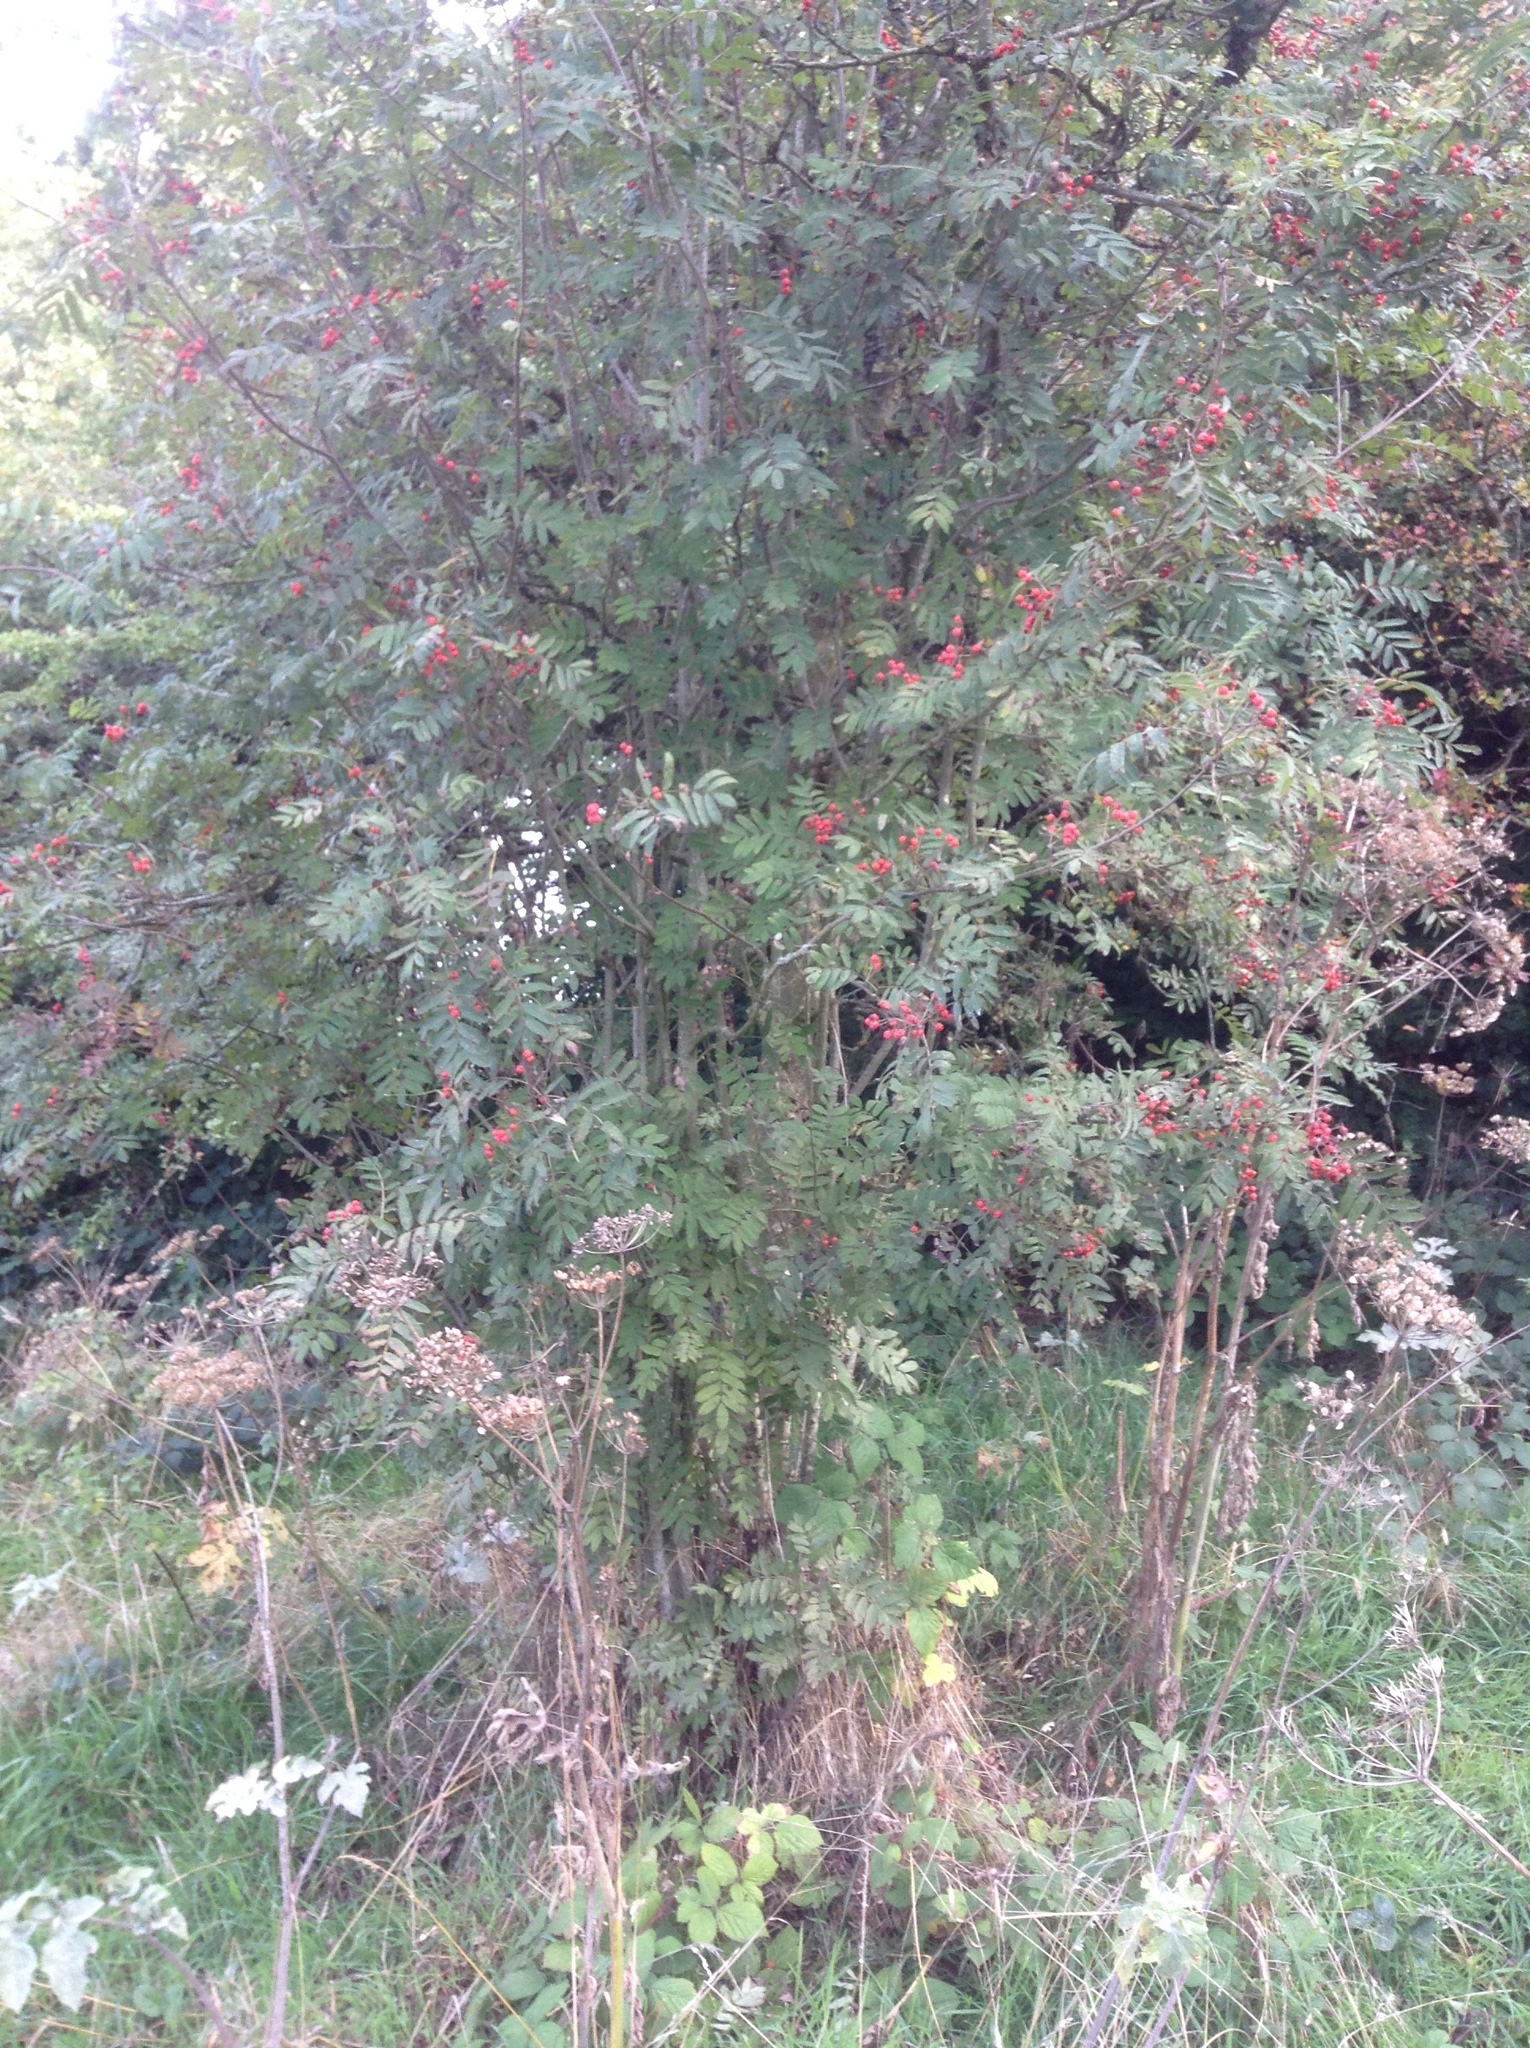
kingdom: Plantae
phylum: Tracheophyta
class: Magnoliopsida
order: Rosales
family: Rosaceae
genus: Sorbus
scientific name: Sorbus aucuparia
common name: Rowan
